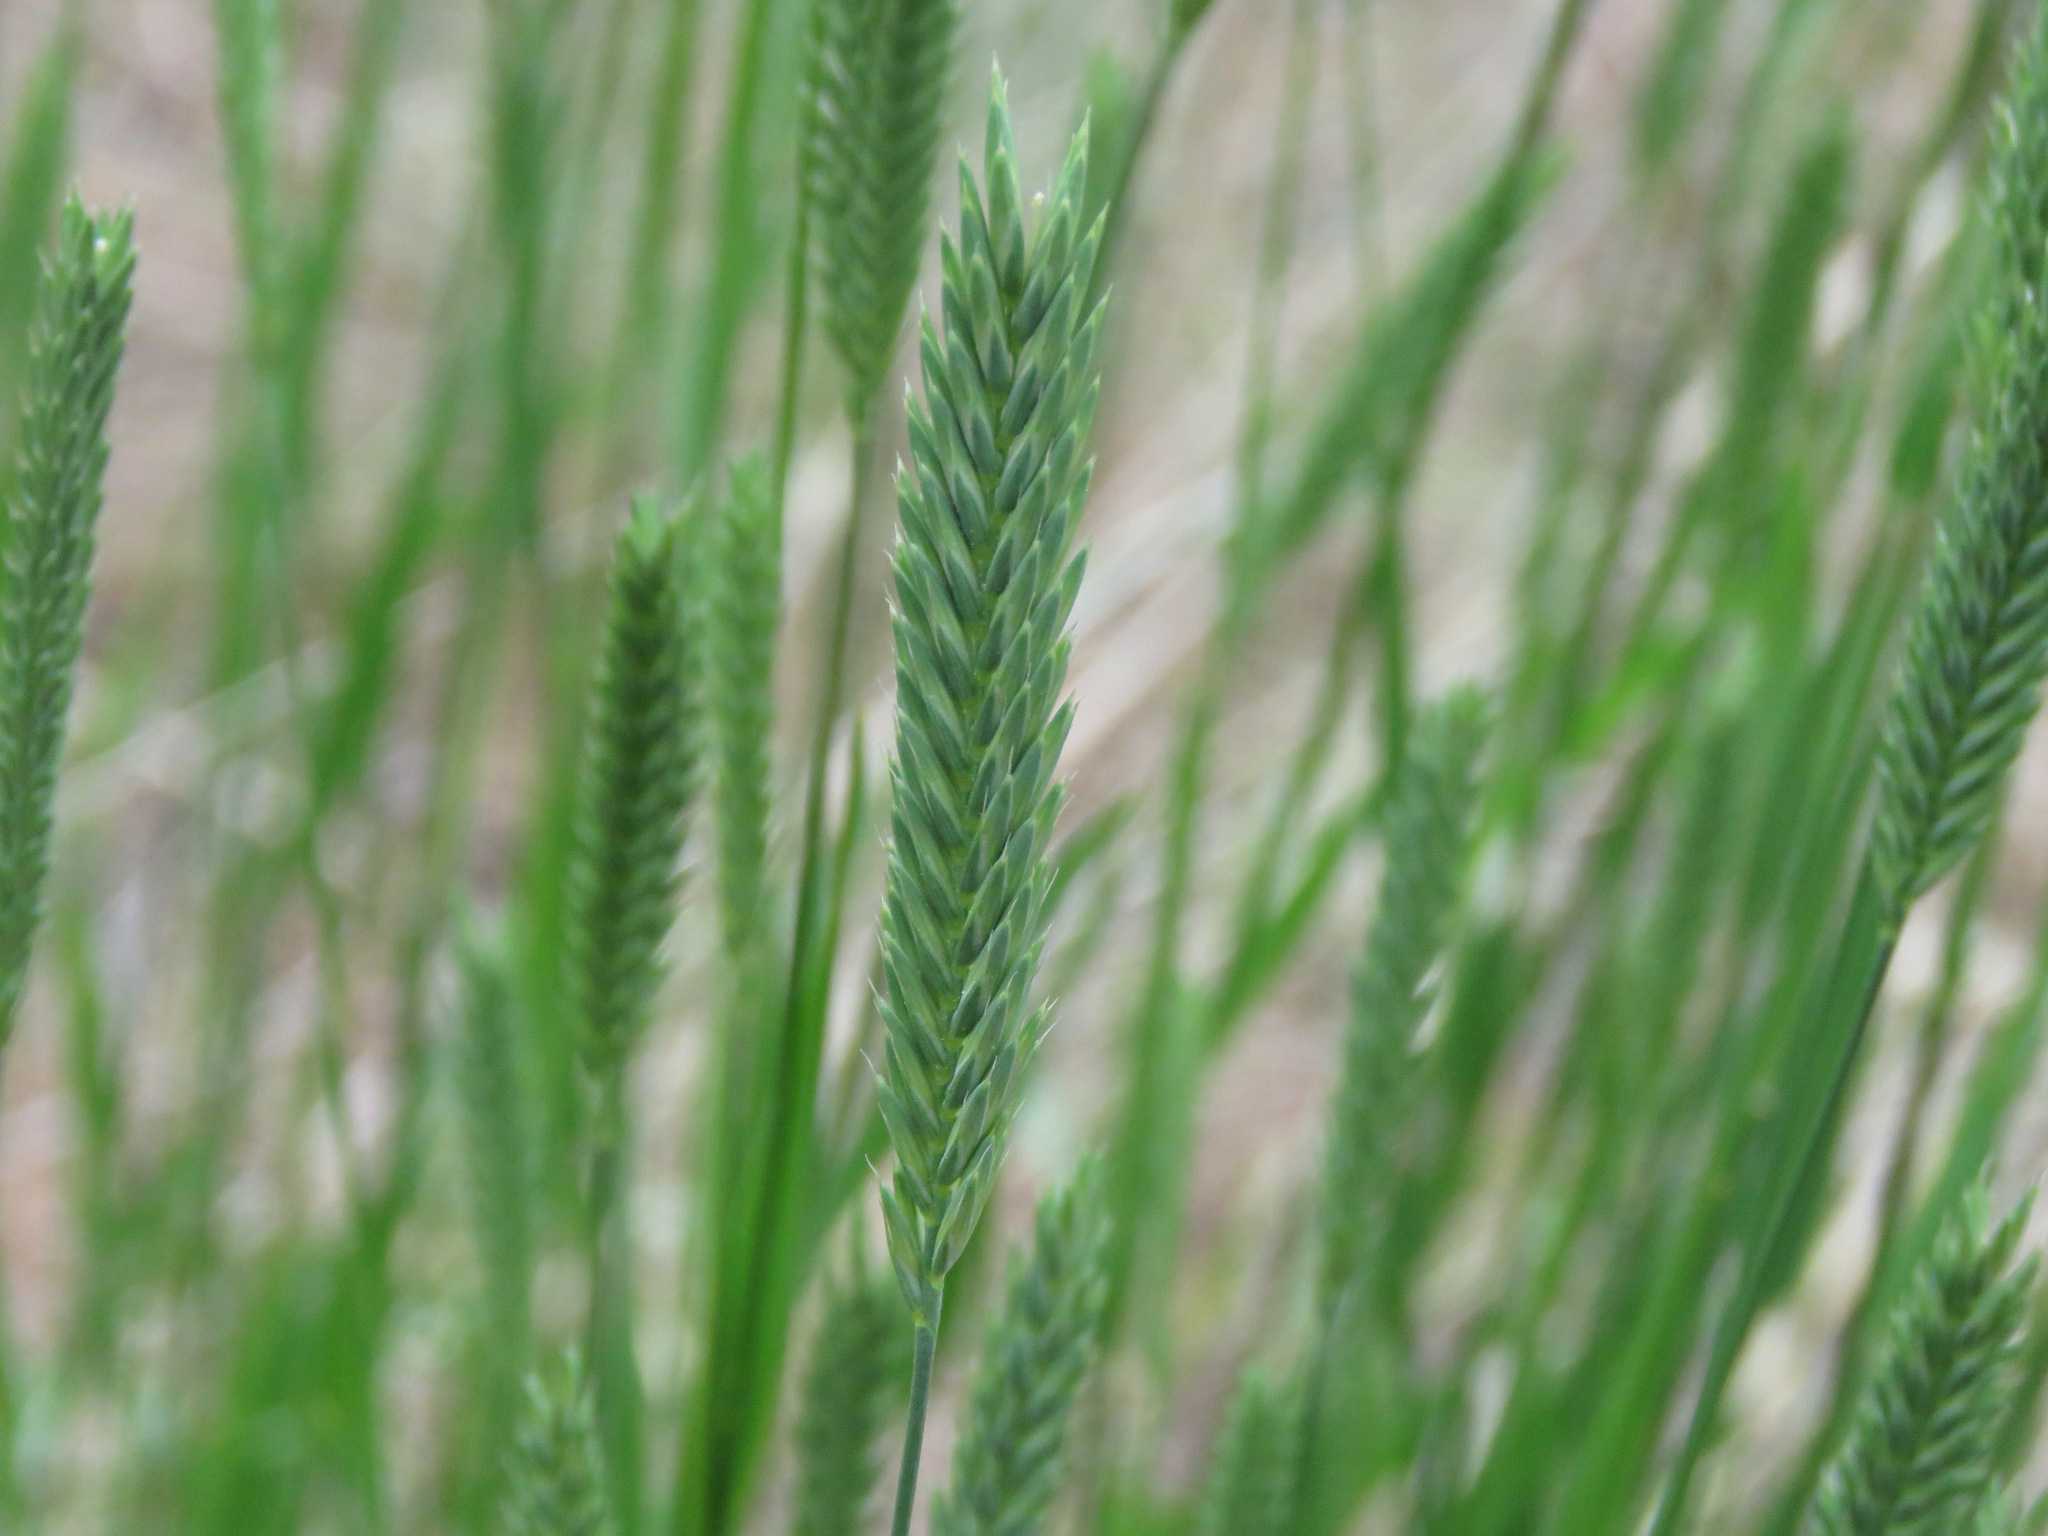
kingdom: Plantae
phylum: Tracheophyta
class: Liliopsida
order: Poales
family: Poaceae
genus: Agropyron
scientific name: Agropyron cristatum
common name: Crested wheatgrass
